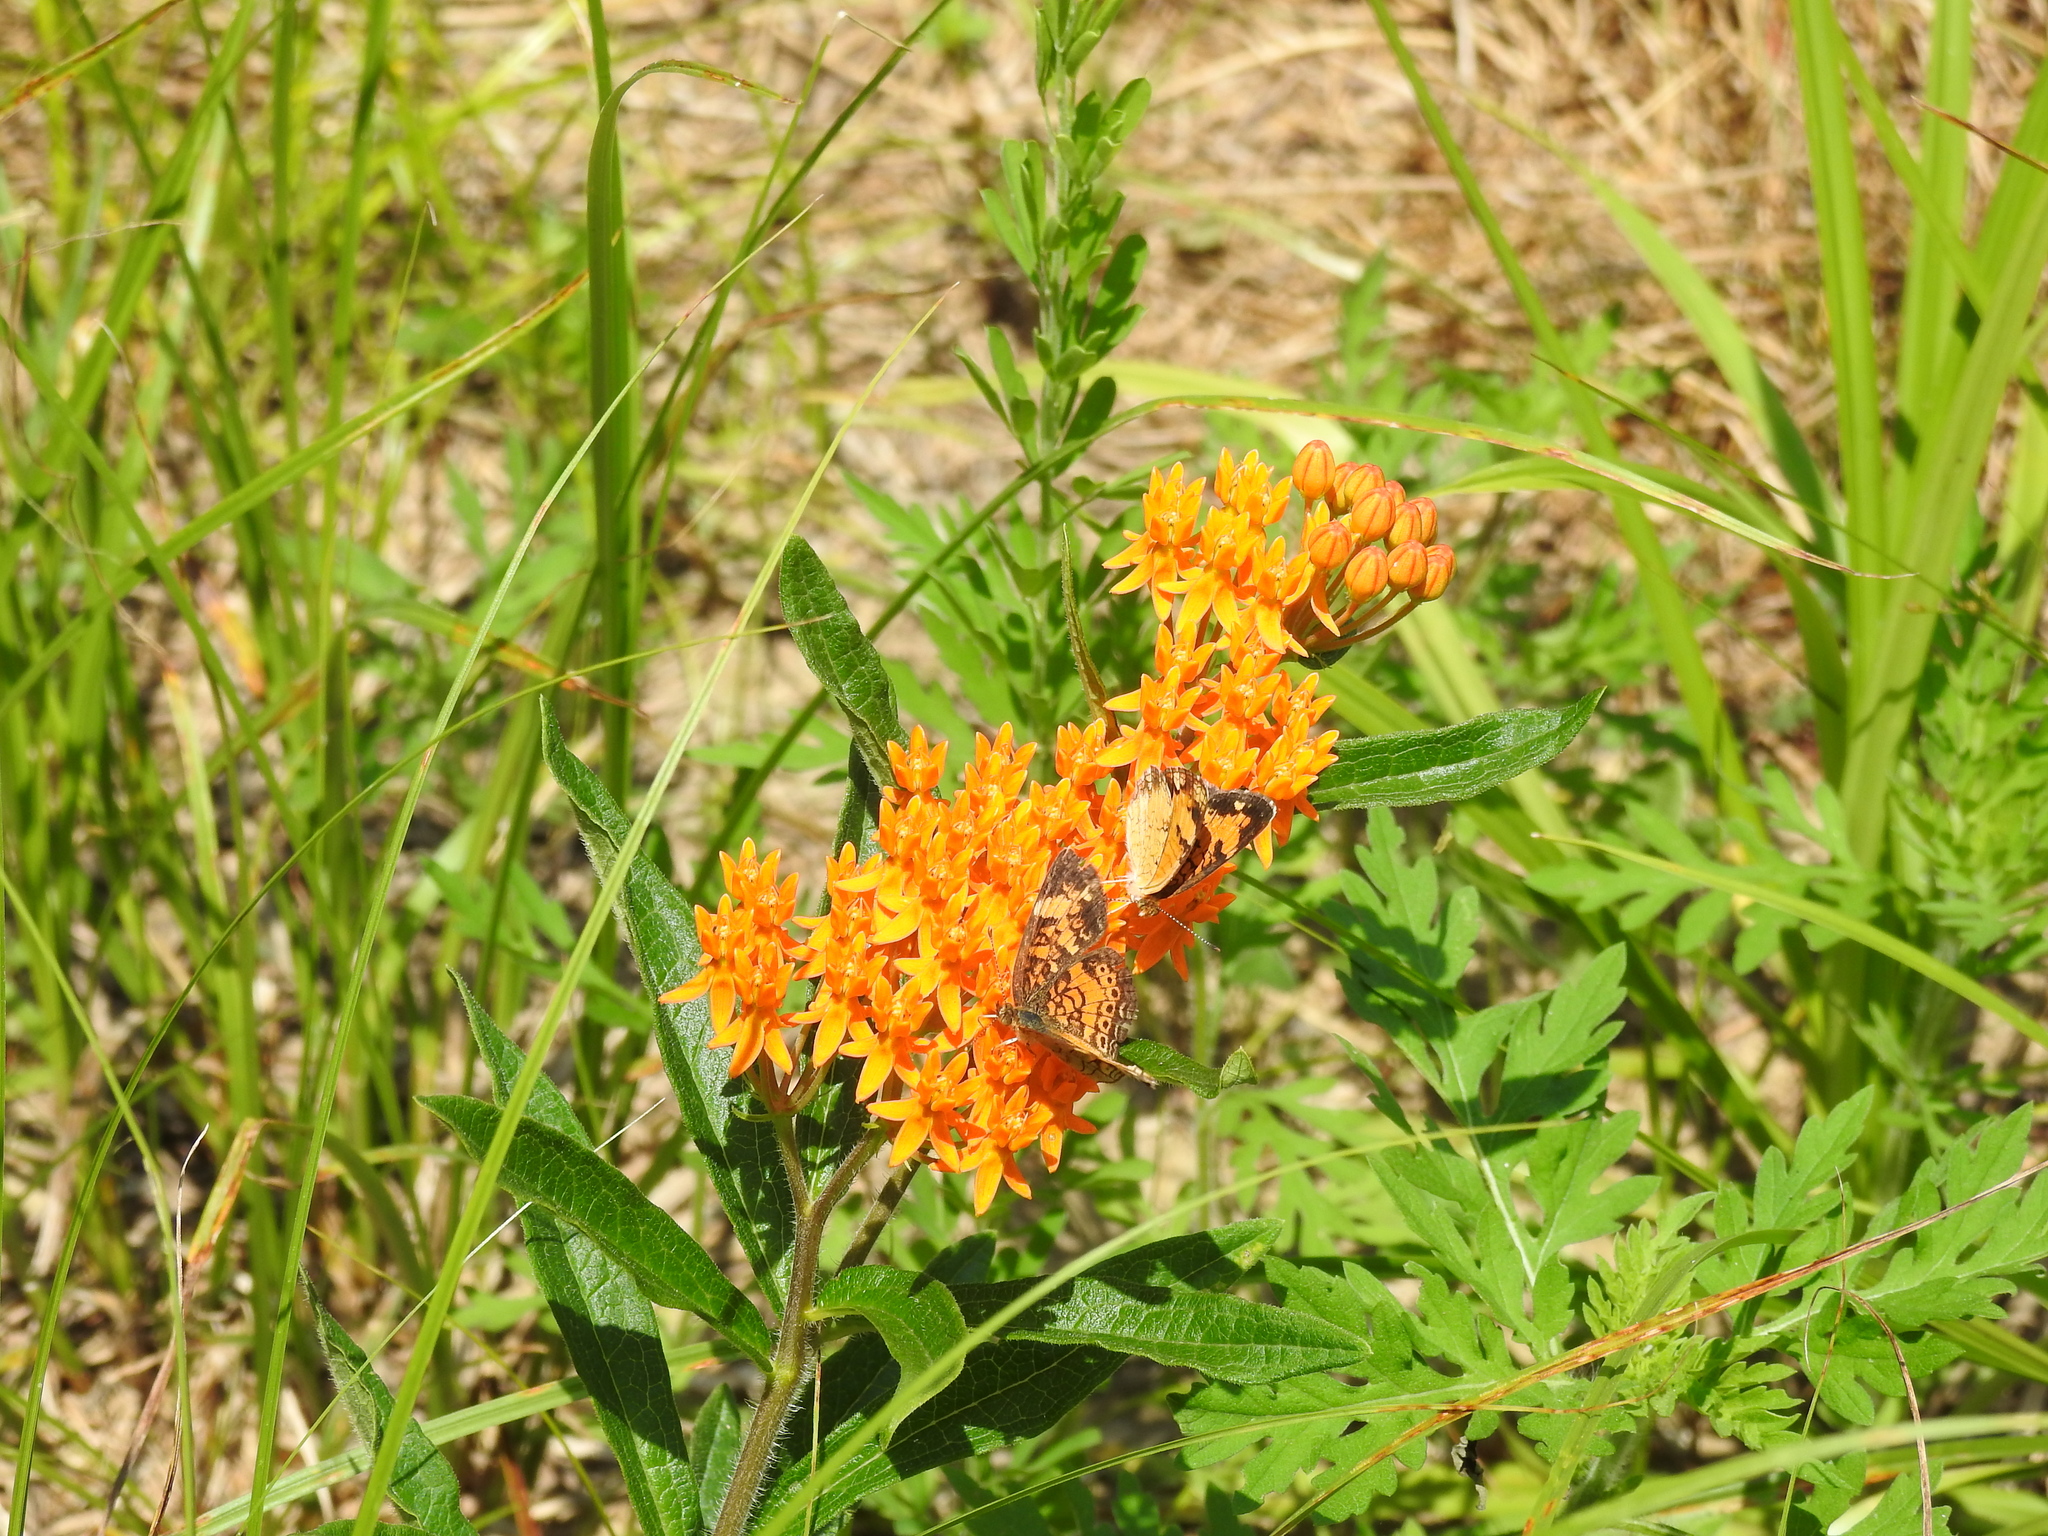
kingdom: Plantae
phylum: Tracheophyta
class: Magnoliopsida
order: Gentianales
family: Apocynaceae
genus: Asclepias
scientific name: Asclepias tuberosa
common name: Butterfly milkweed
